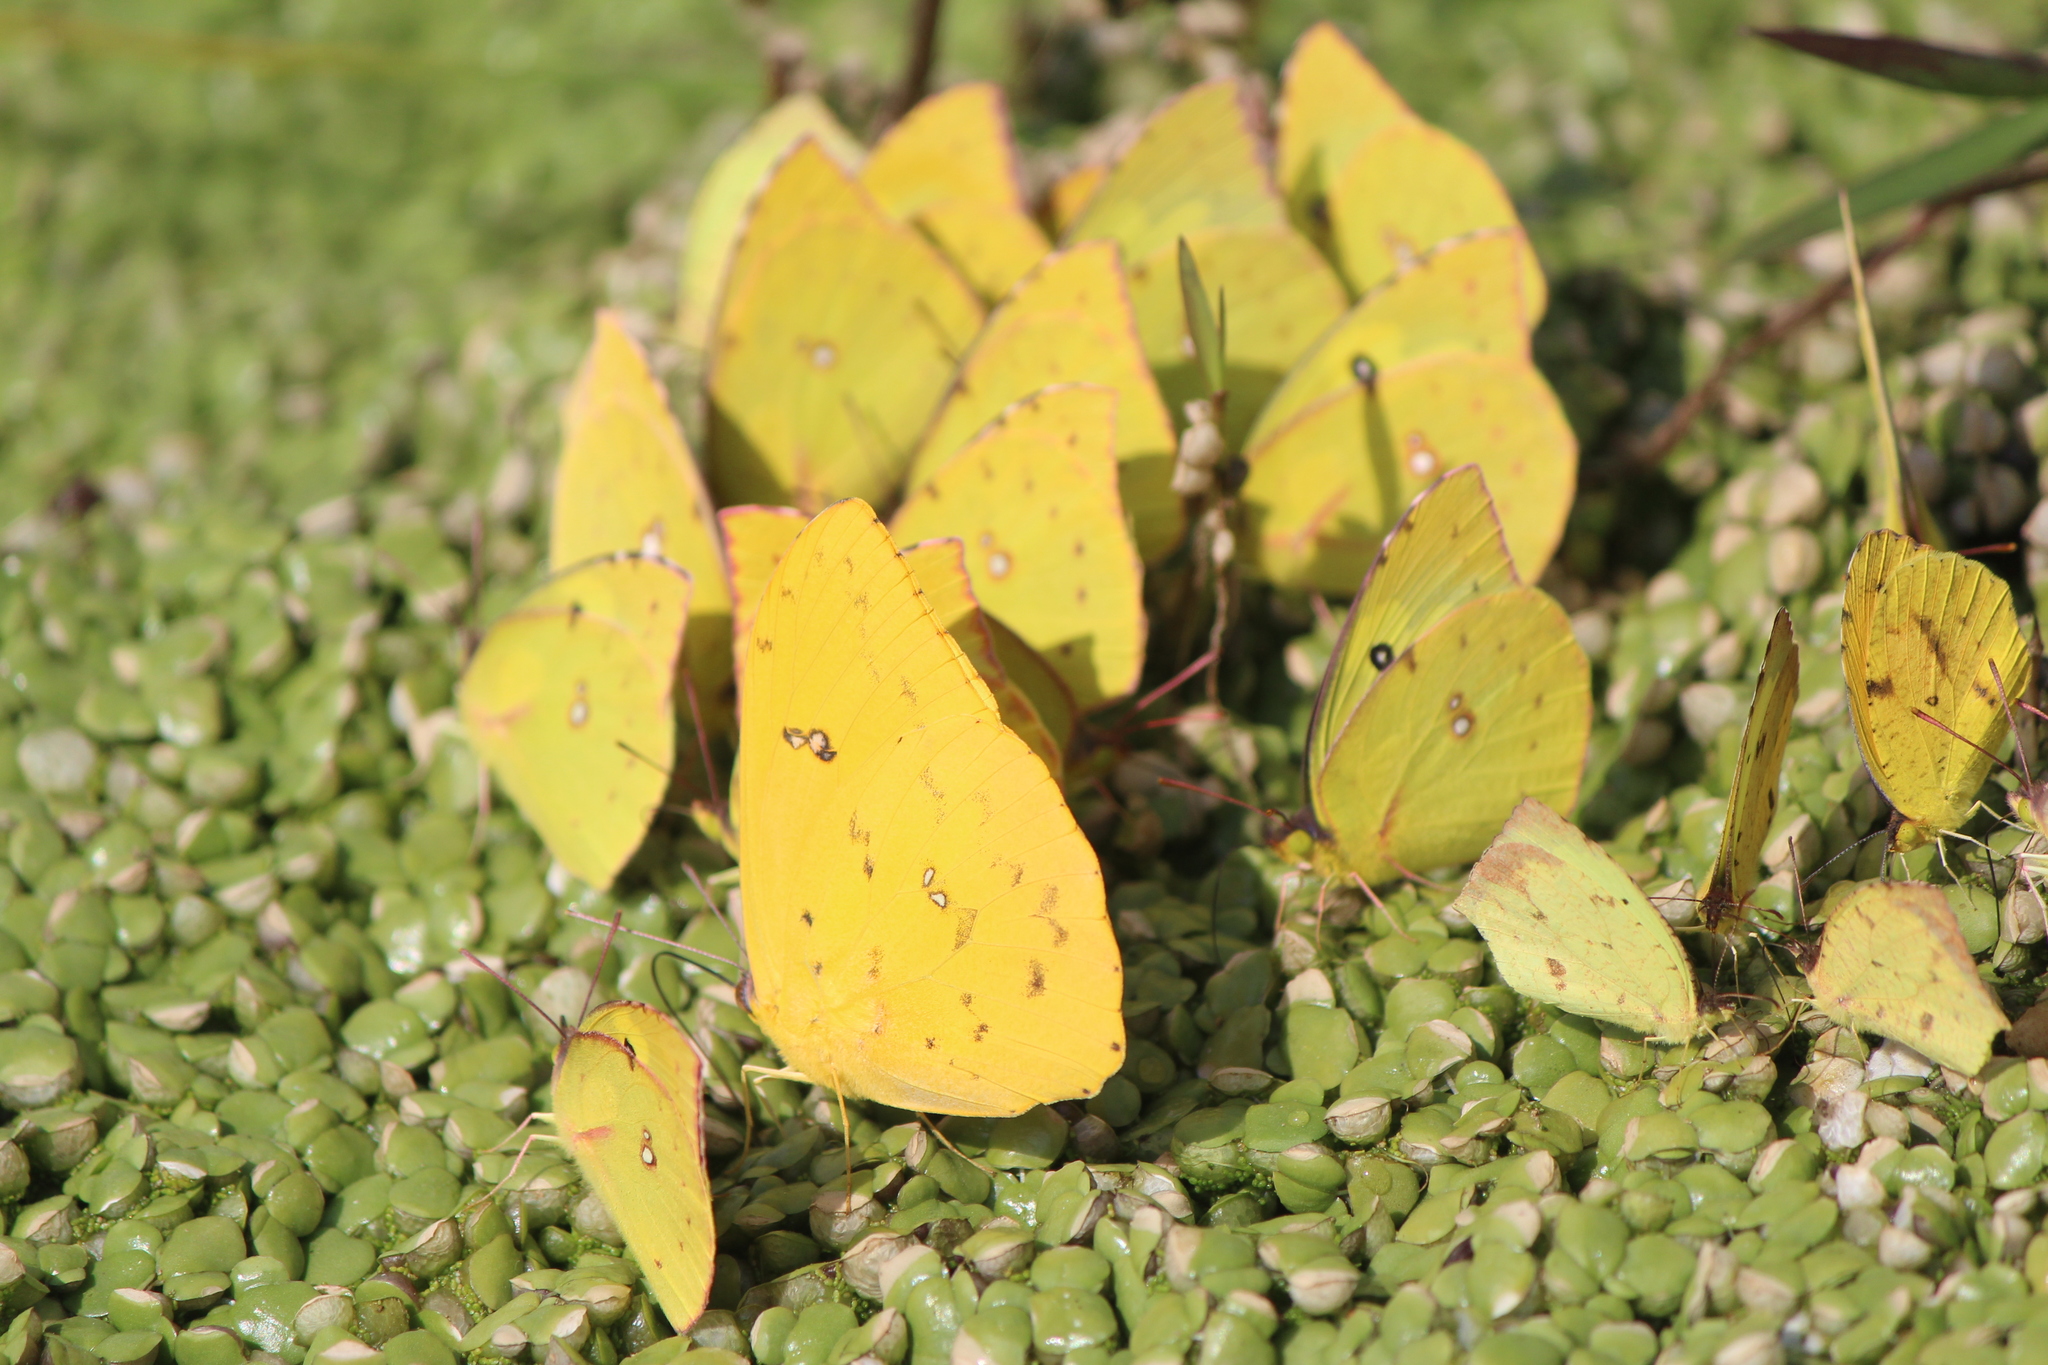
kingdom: Animalia
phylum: Arthropoda
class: Insecta
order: Lepidoptera
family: Pieridae
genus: Phoebis
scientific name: Phoebis marcellina
